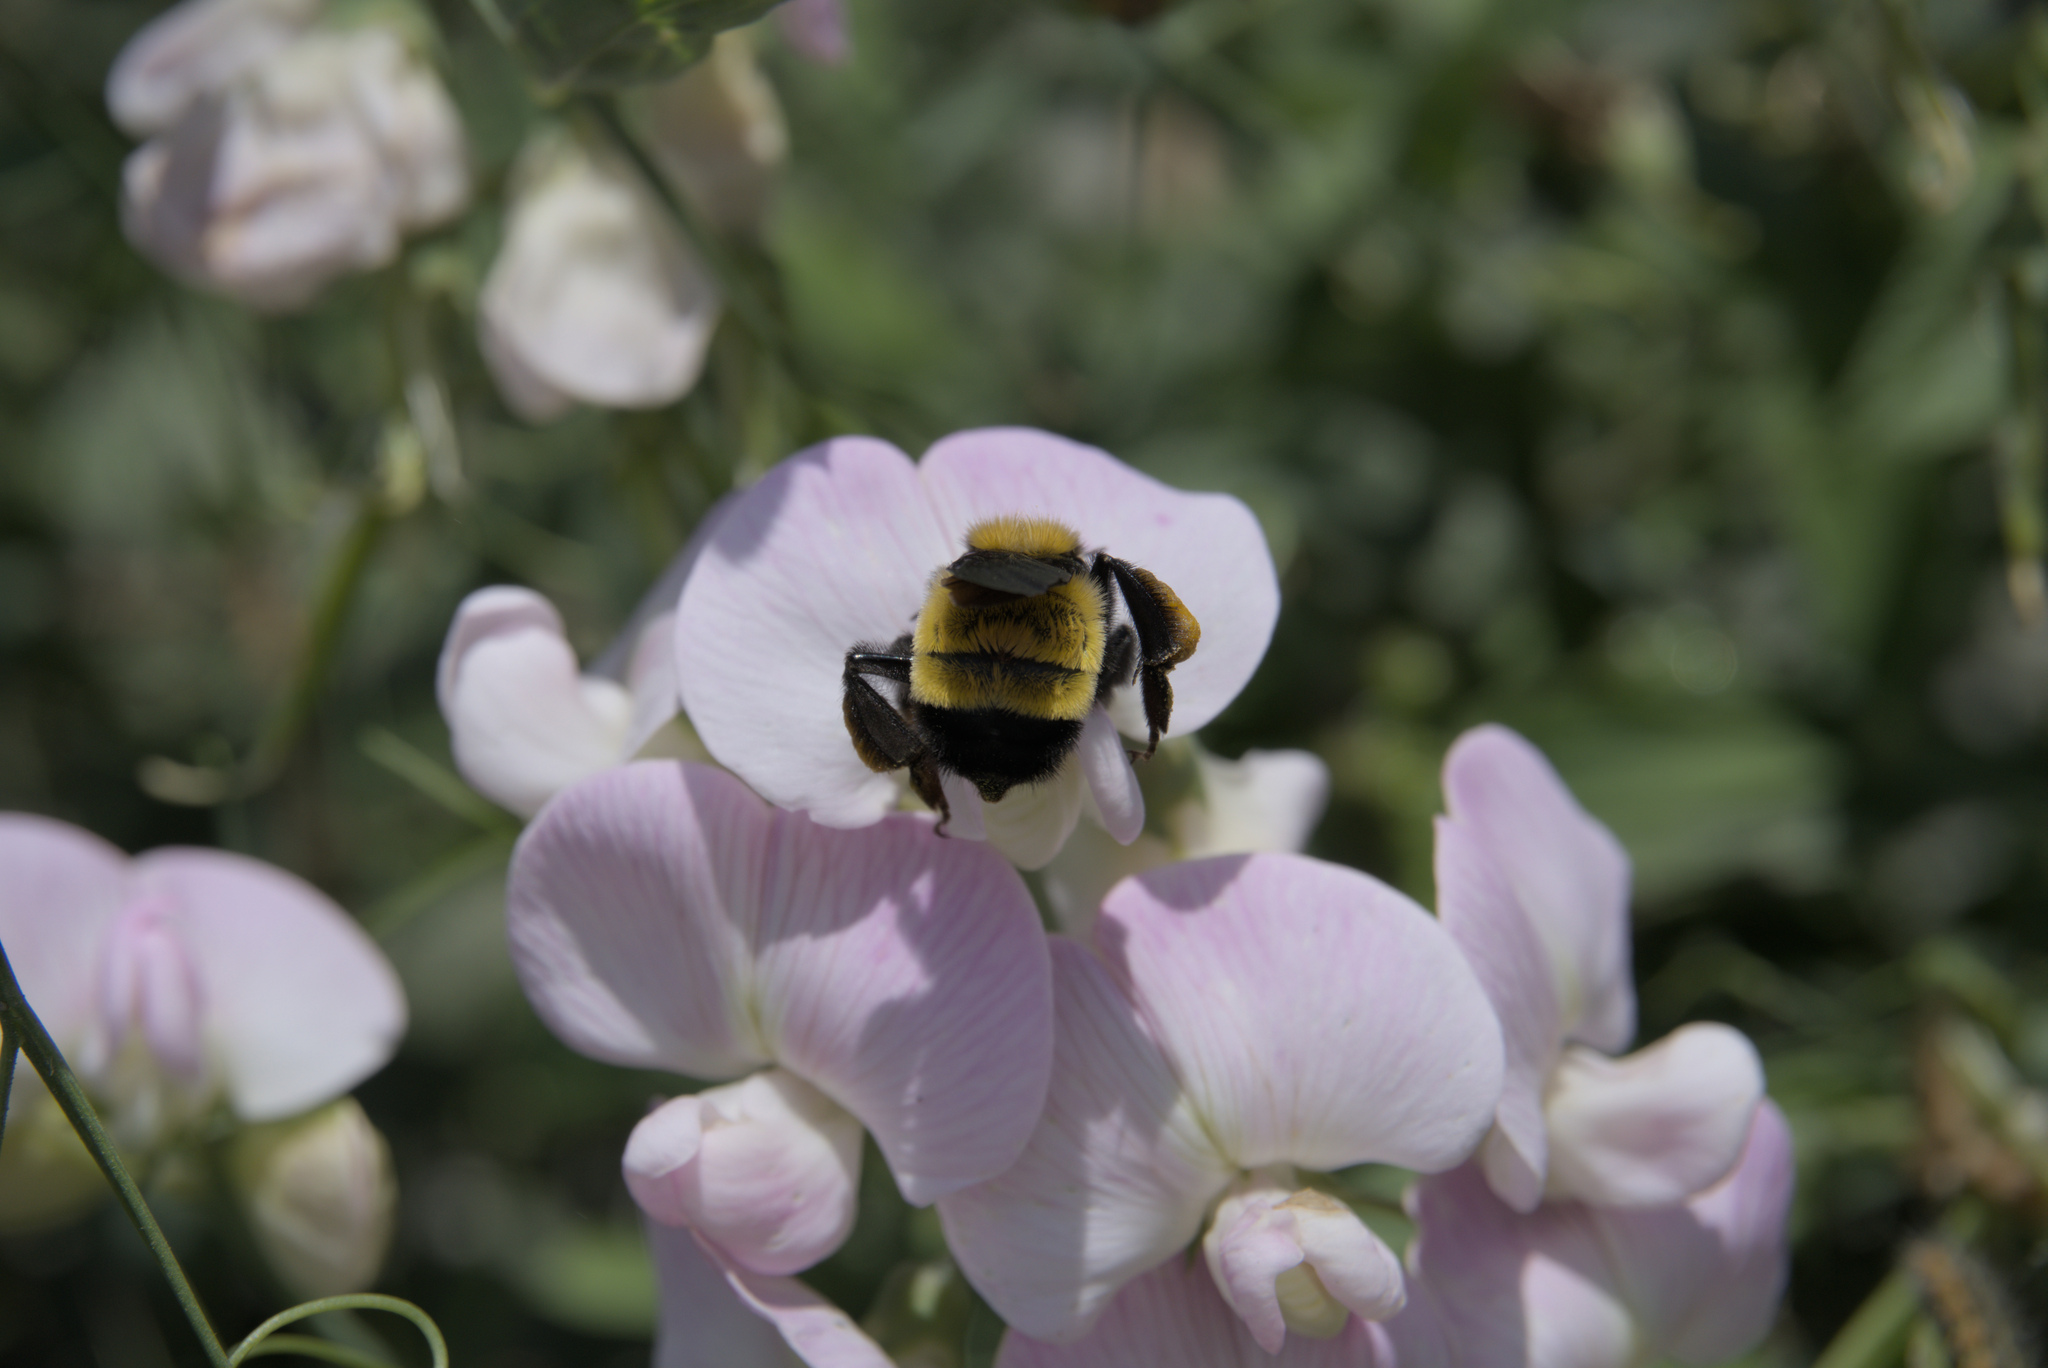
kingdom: Animalia
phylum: Arthropoda
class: Insecta
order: Hymenoptera
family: Apidae
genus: Bombus
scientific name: Bombus sonorus
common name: Sonoran bumble bee
